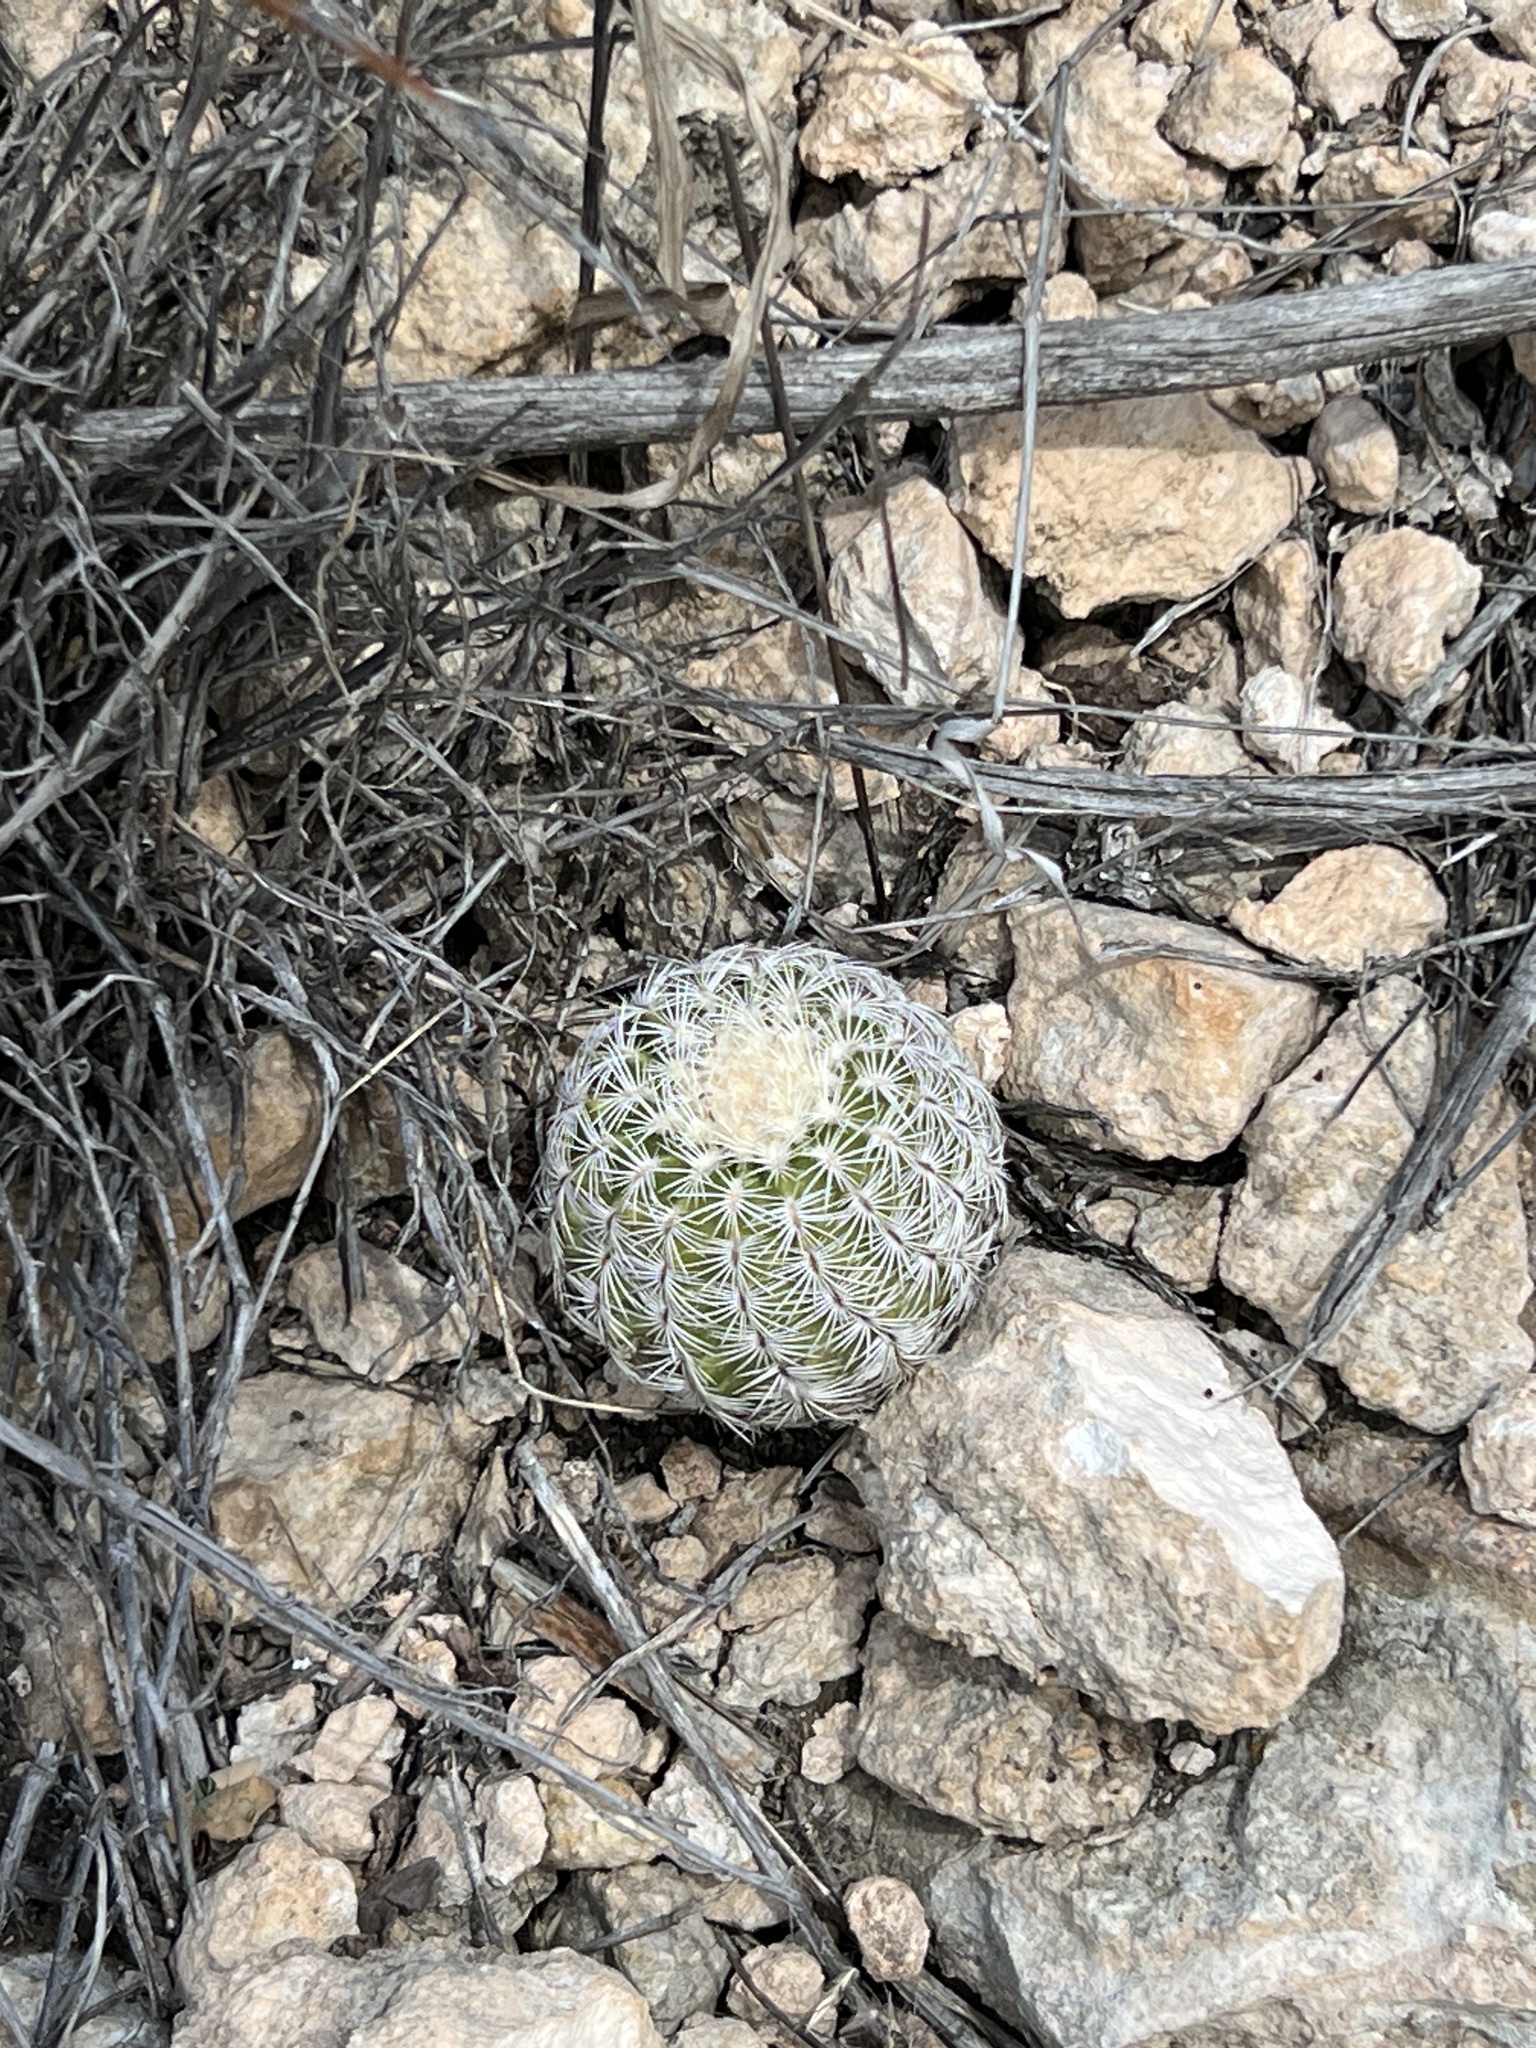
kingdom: Plantae
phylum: Tracheophyta
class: Magnoliopsida
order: Caryophyllales
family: Cactaceae
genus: Echinocereus
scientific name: Echinocereus reichenbachii
